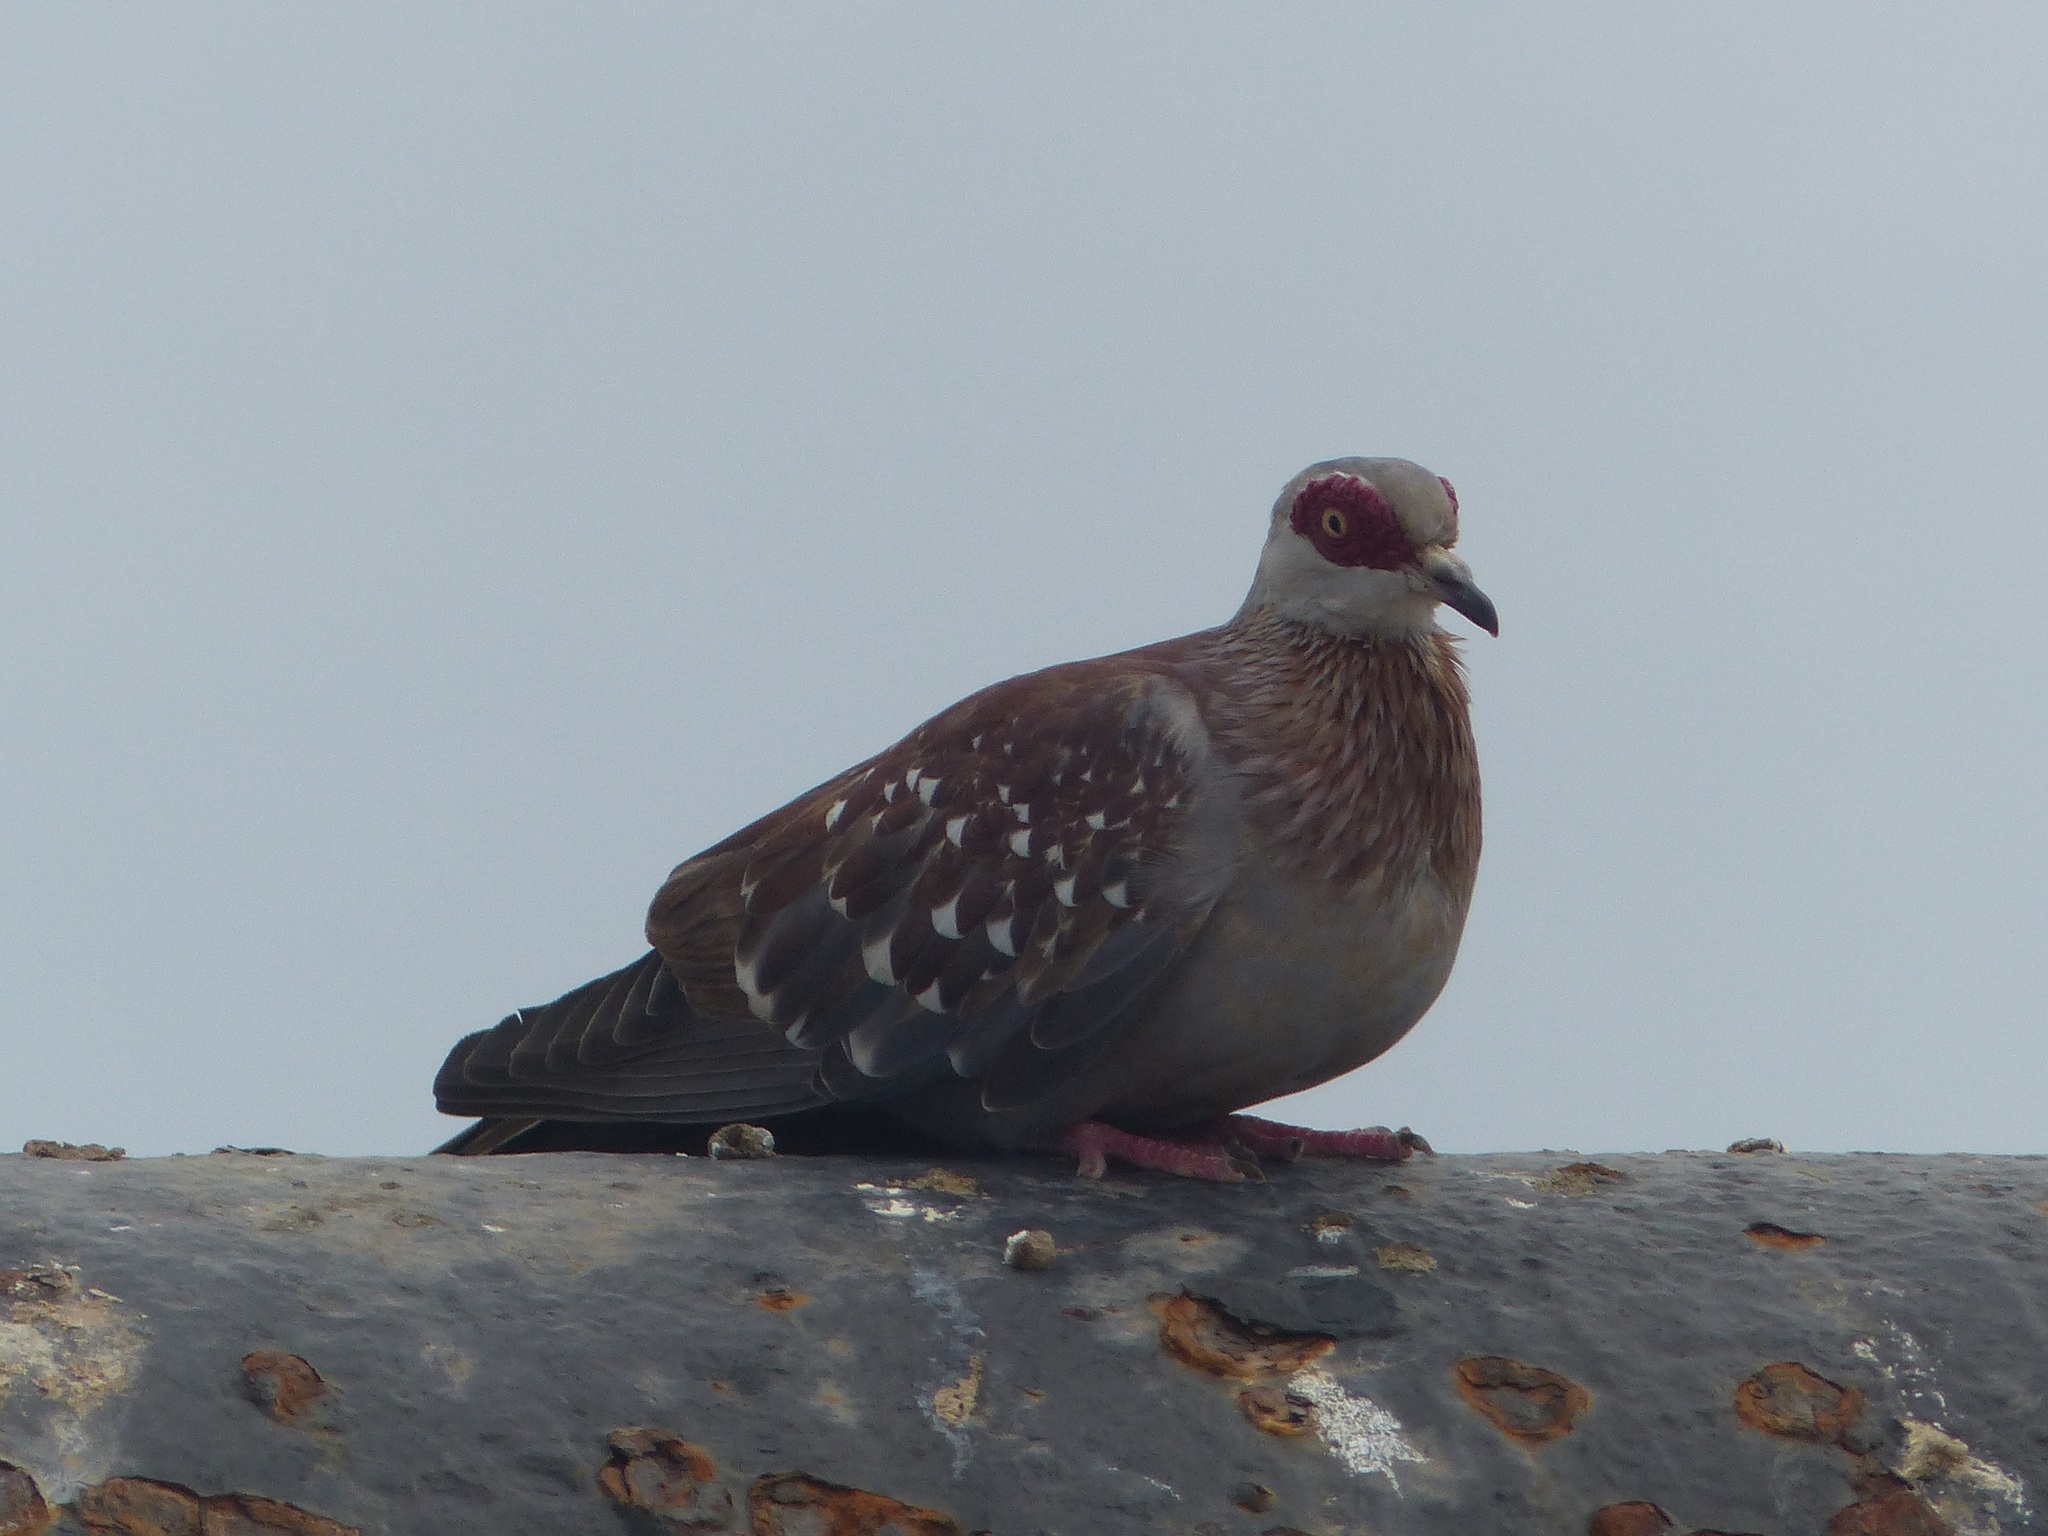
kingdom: Animalia
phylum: Chordata
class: Aves
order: Columbiformes
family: Columbidae
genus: Columba
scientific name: Columba guinea
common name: Speckled pigeon
